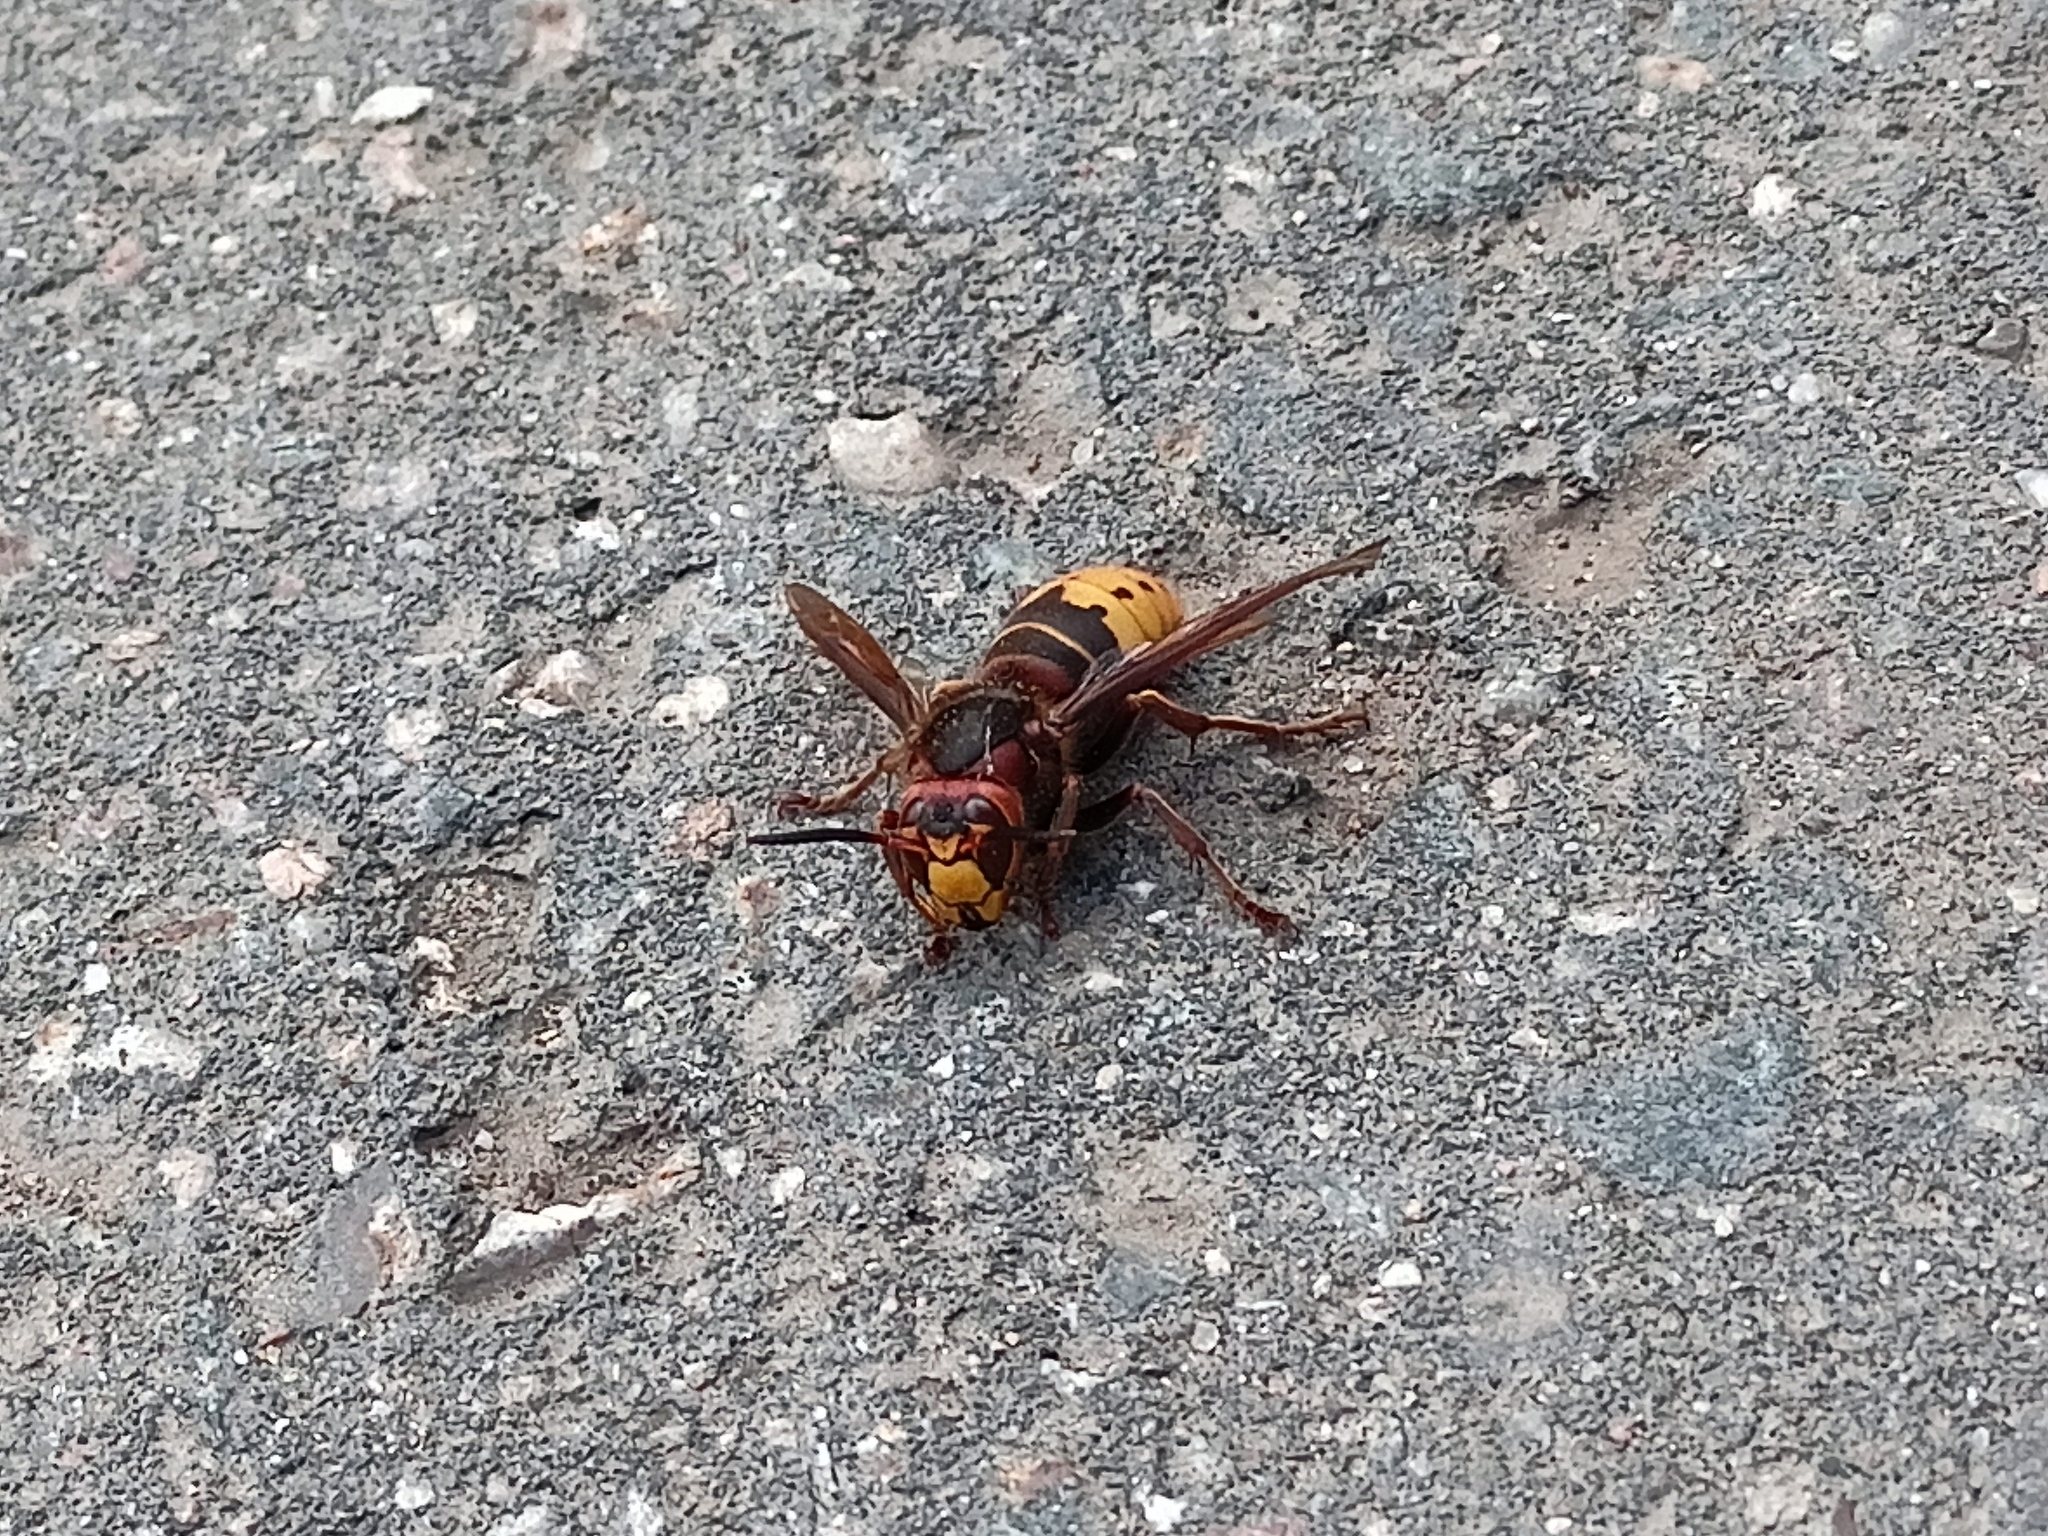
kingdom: Animalia
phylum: Arthropoda
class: Insecta
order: Hymenoptera
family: Vespidae
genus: Vespa
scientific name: Vespa crabro
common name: Hornet
